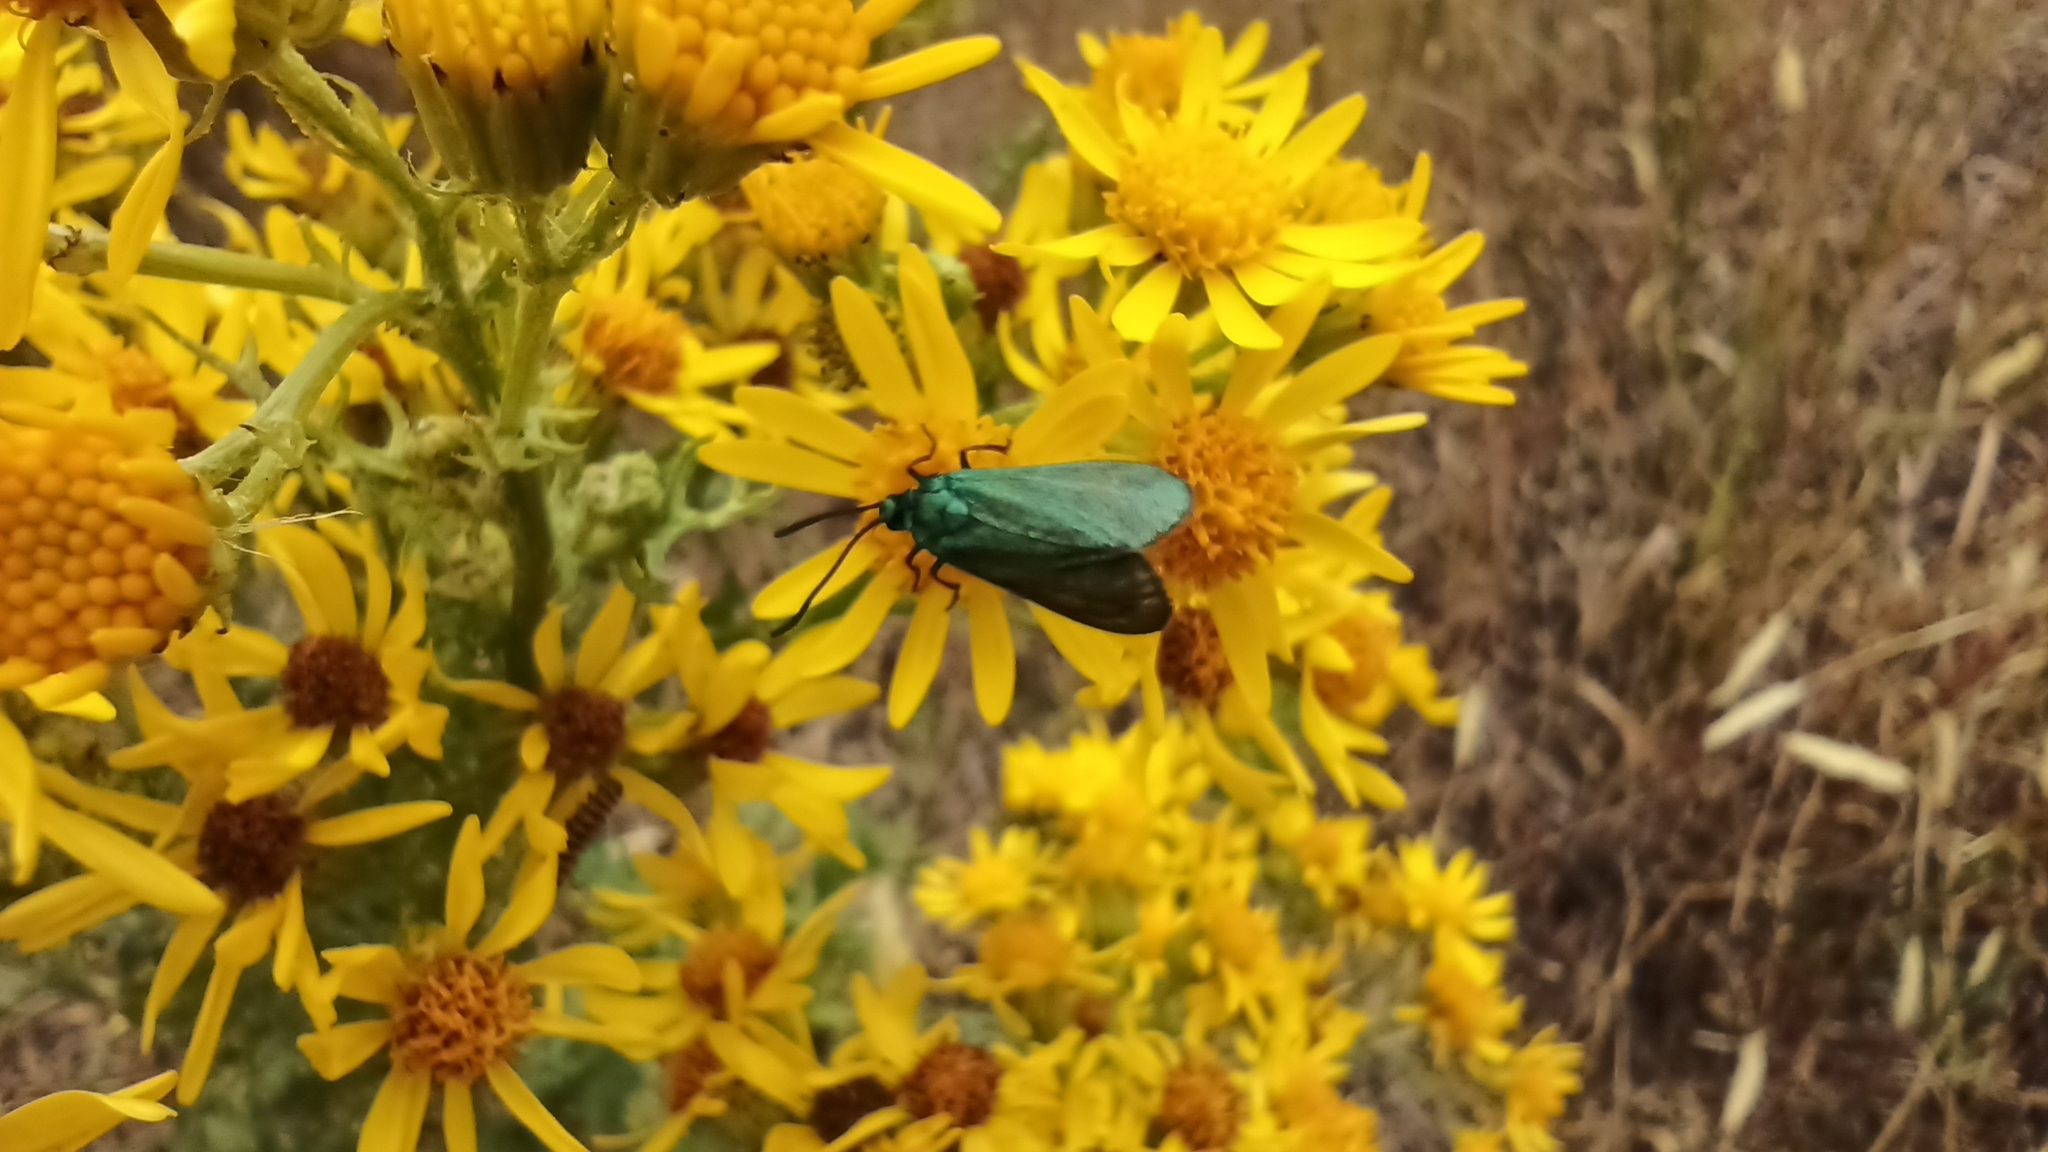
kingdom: Animalia
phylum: Arthropoda
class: Insecta
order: Lepidoptera
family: Zygaenidae
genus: Adscita
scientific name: Adscita statices
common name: Forester
